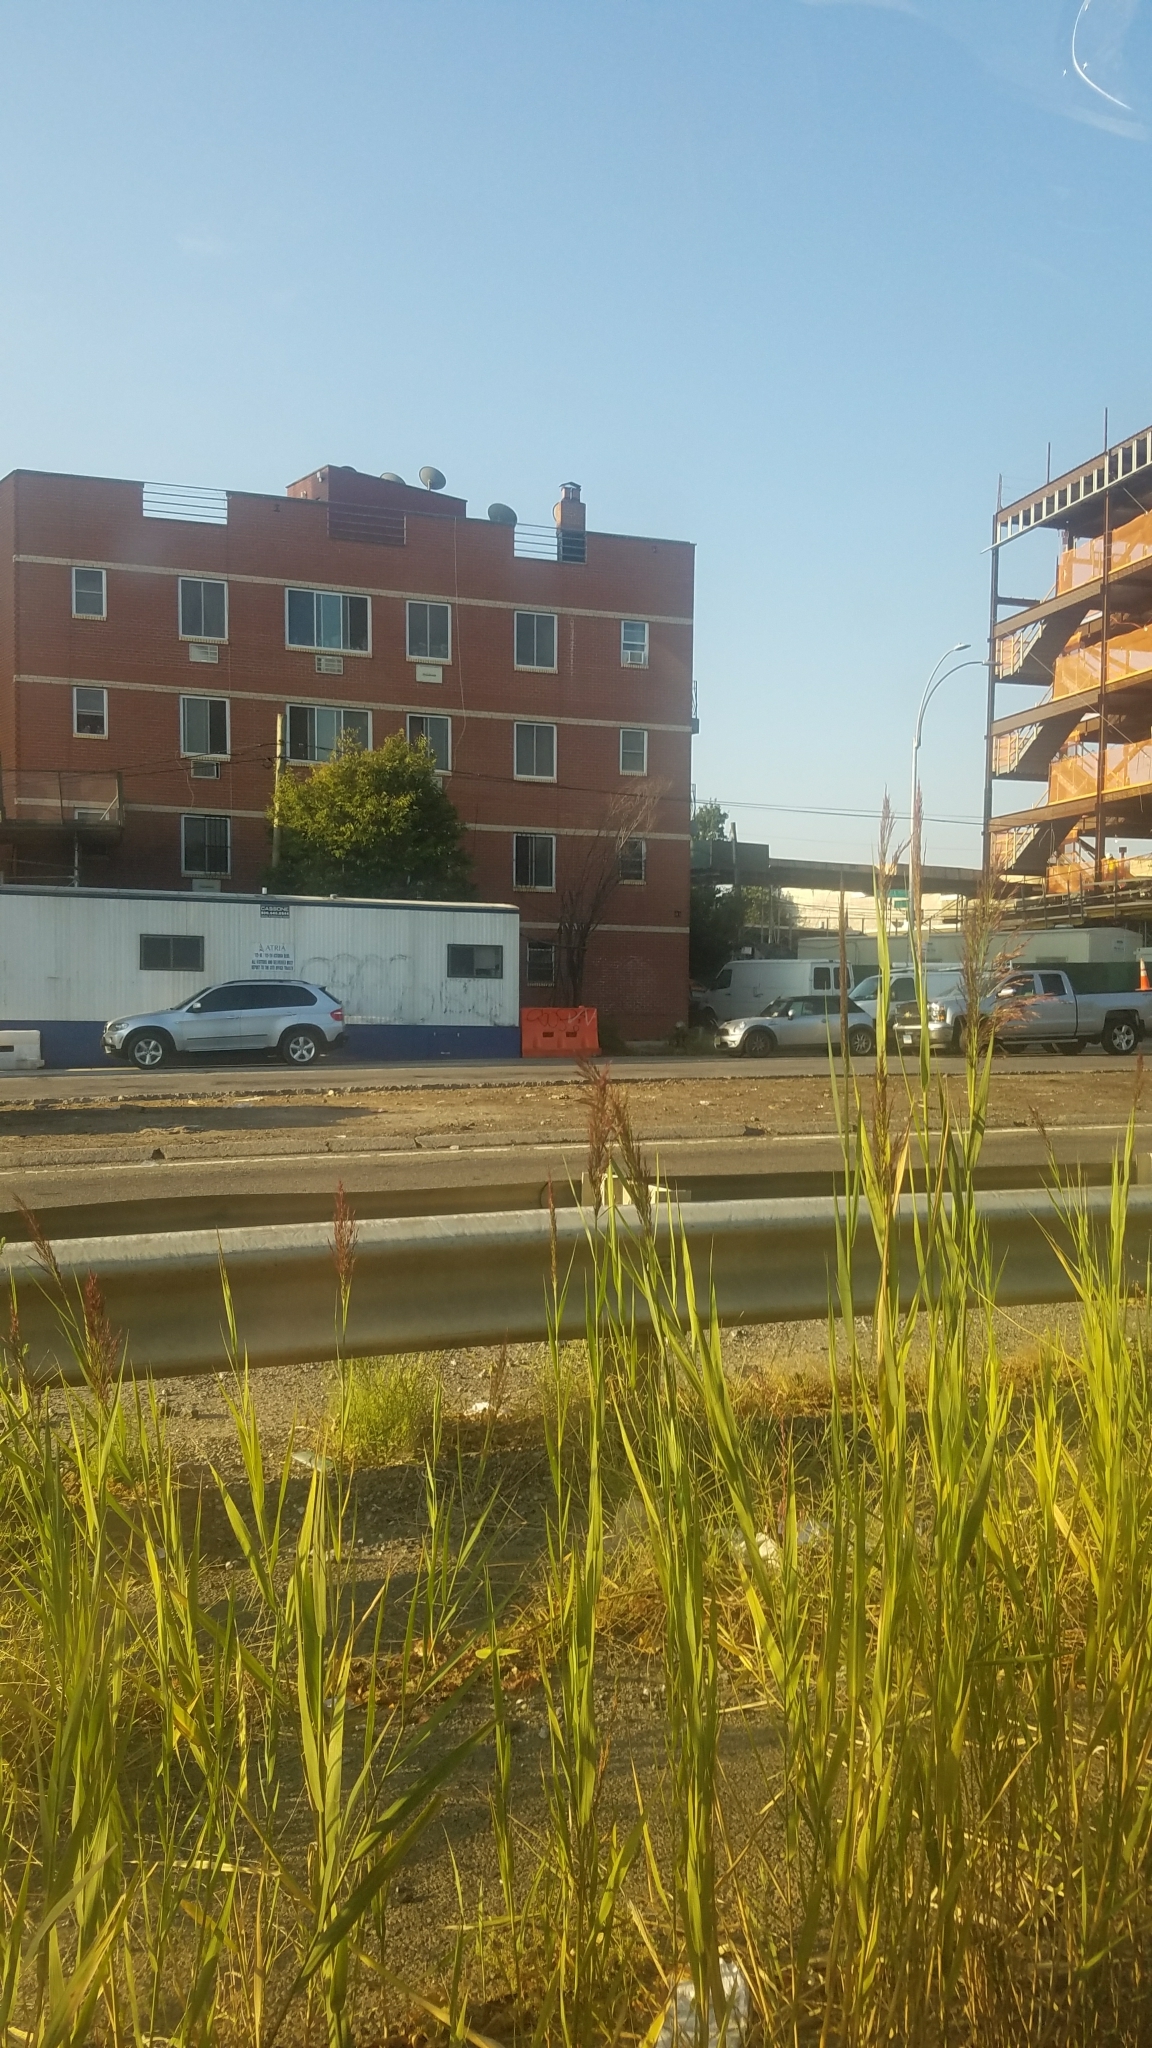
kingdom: Plantae
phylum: Tracheophyta
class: Liliopsida
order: Poales
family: Poaceae
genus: Phragmites
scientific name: Phragmites australis
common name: Common reed
